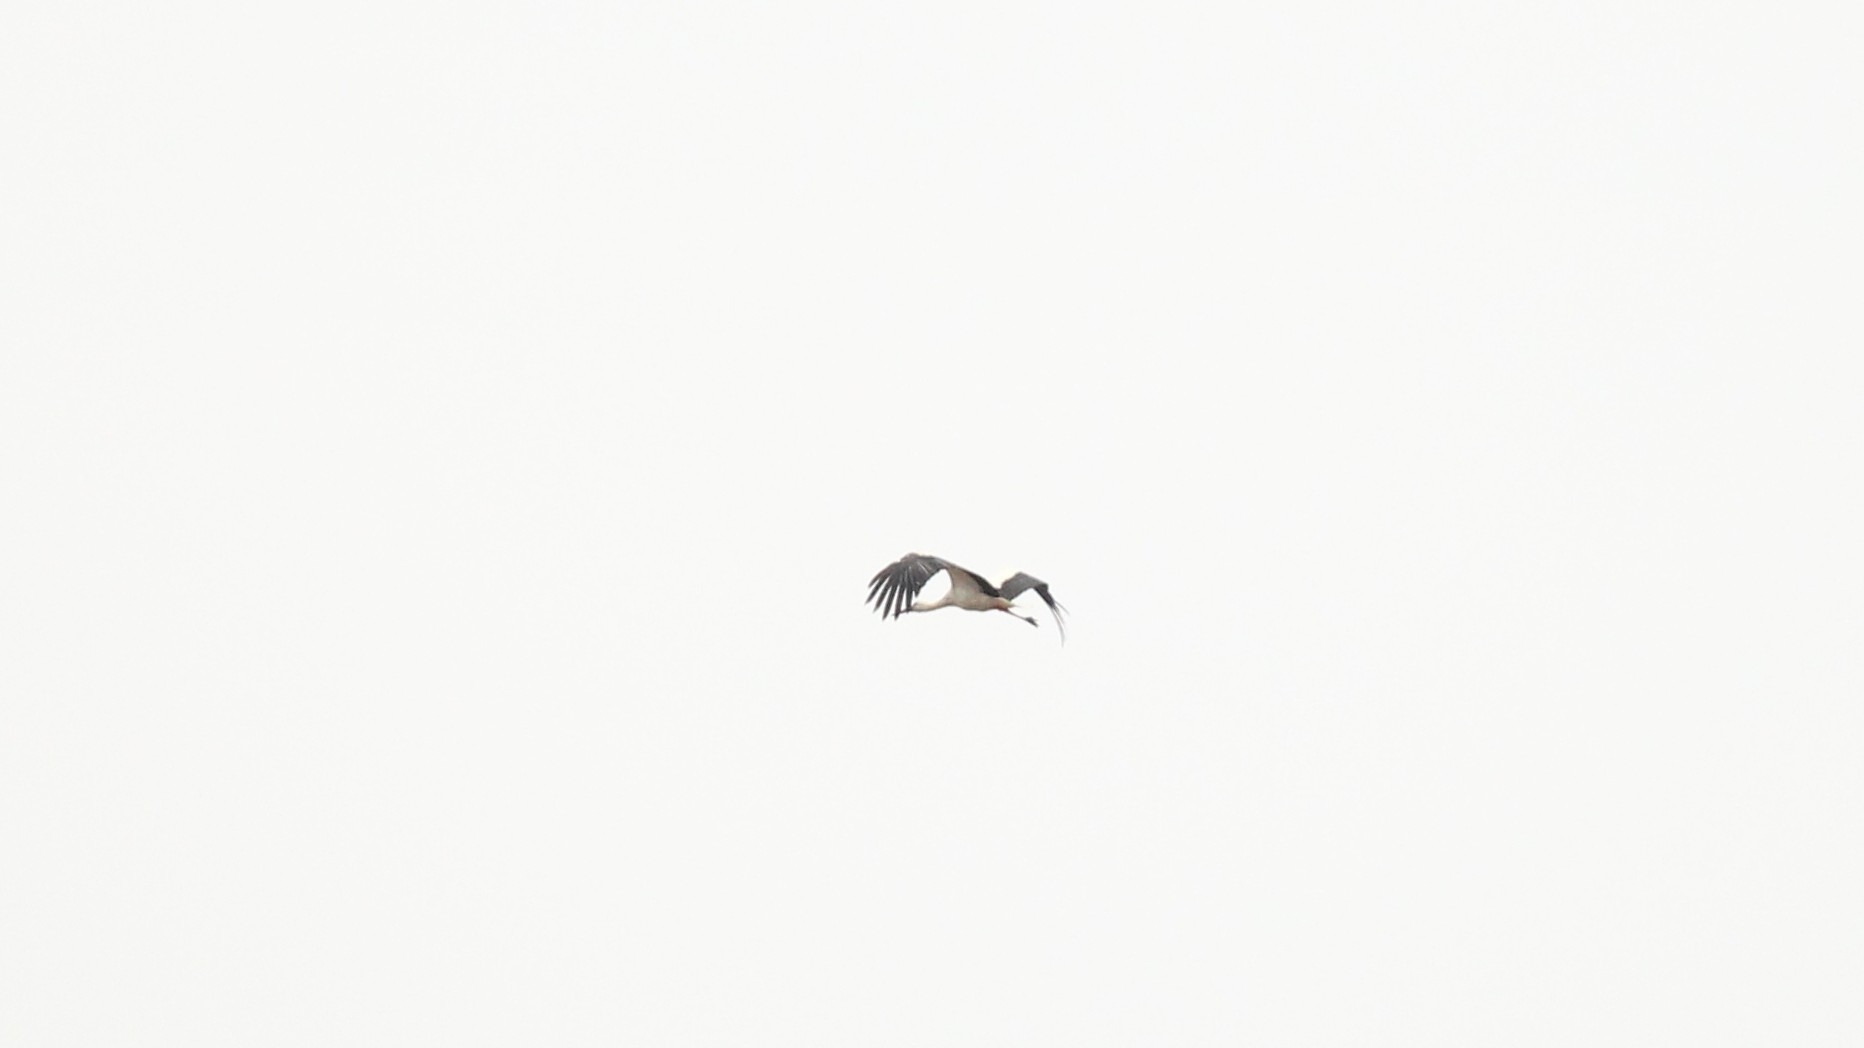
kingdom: Animalia
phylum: Chordata
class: Aves
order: Ciconiiformes
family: Ciconiidae
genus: Ciconia
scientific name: Ciconia ciconia
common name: White stork
